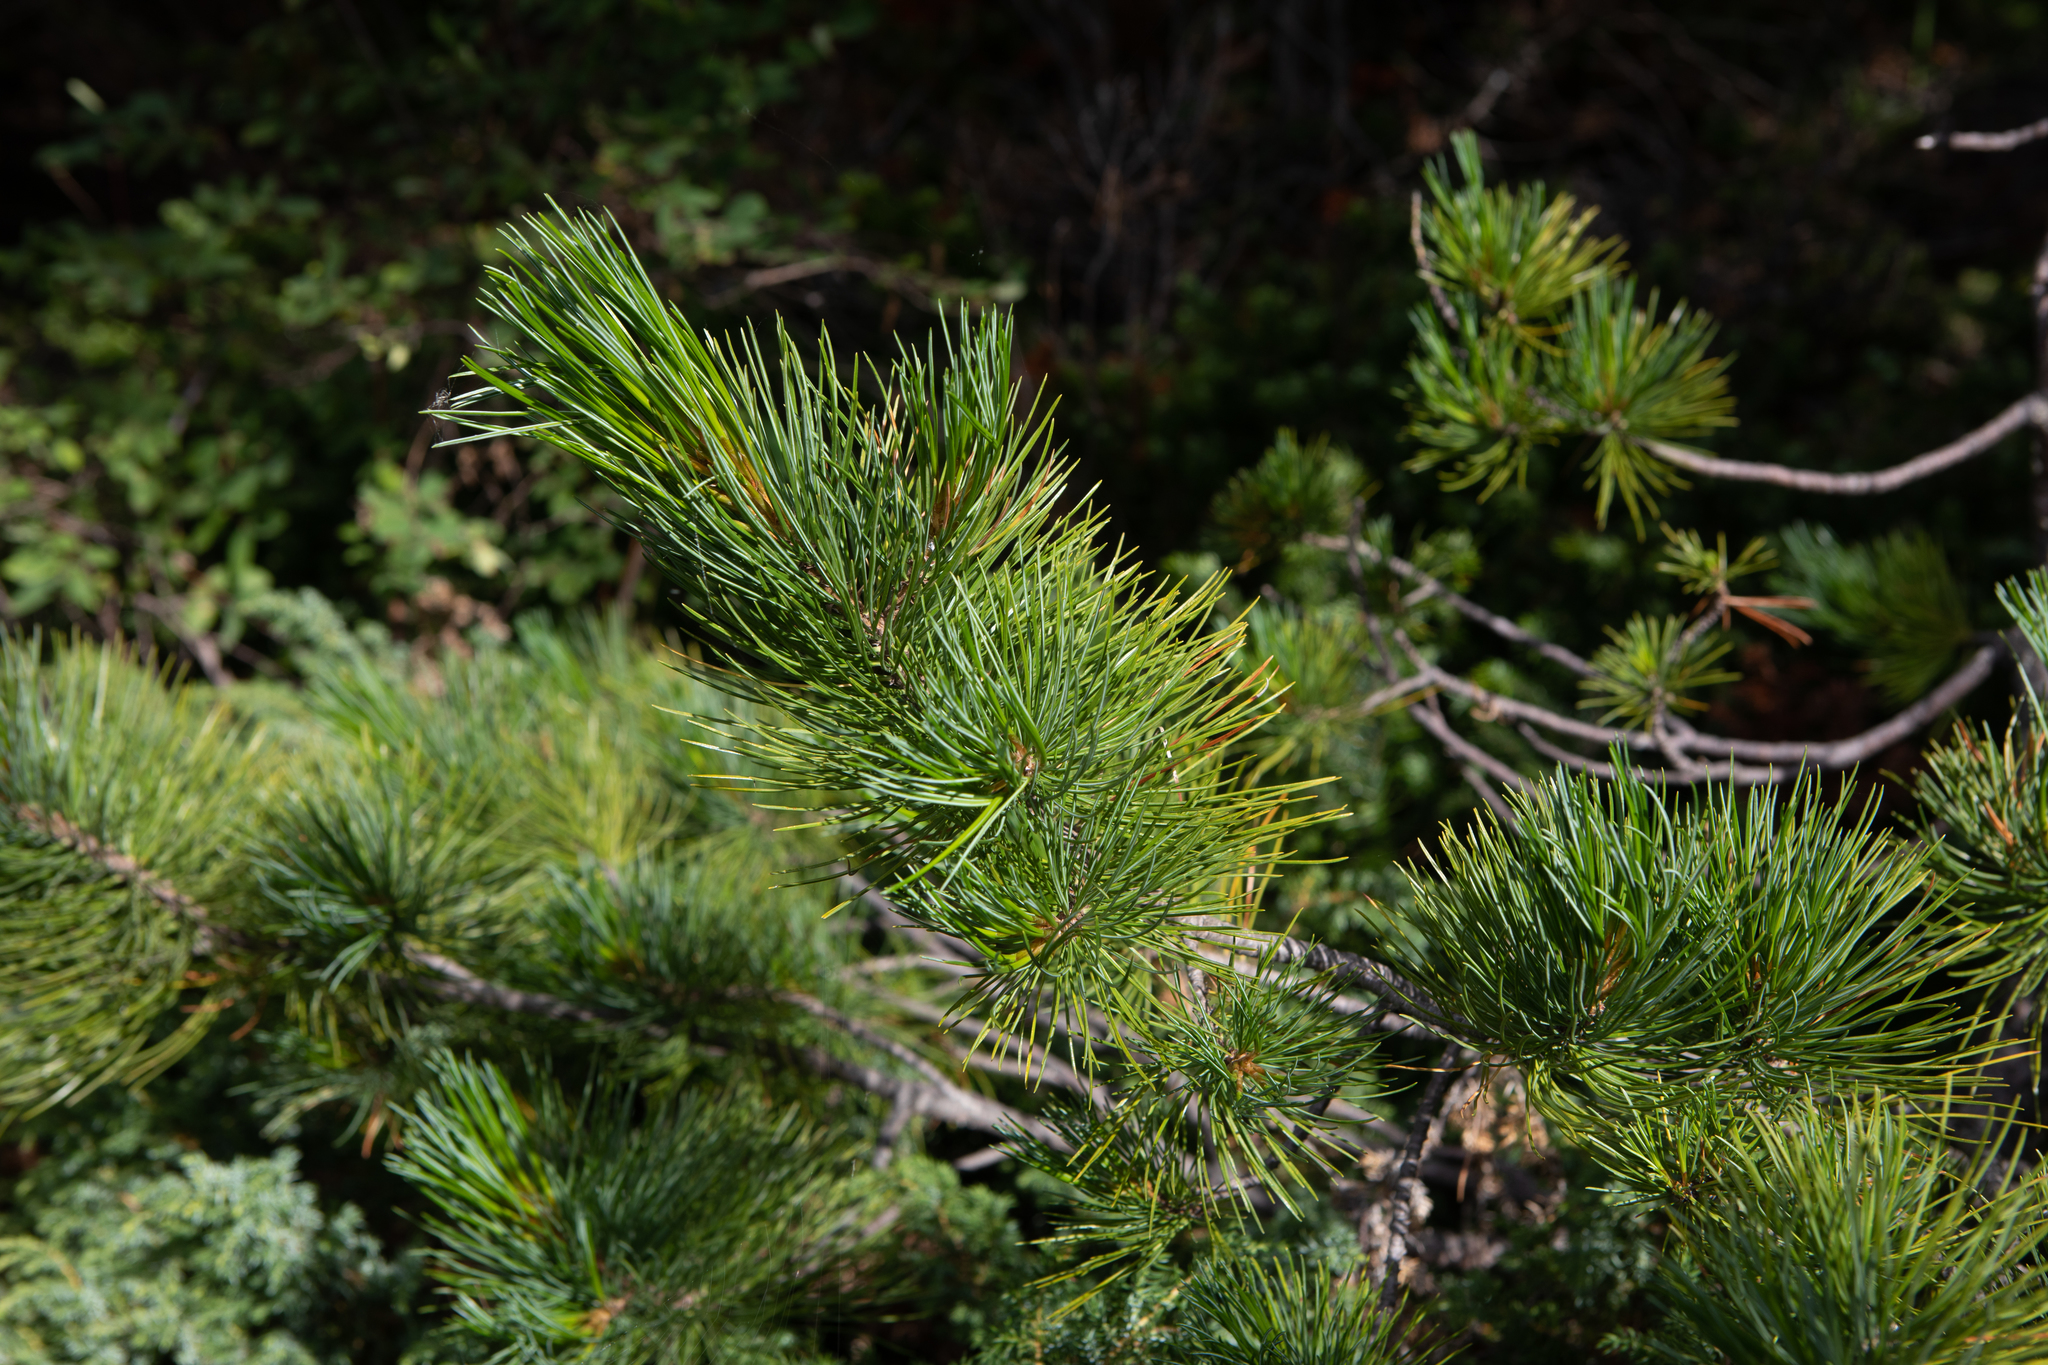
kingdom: Plantae
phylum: Tracheophyta
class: Pinopsida
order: Pinales
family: Pinaceae
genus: Pinus
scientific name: Pinus sibirica
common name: Siberian pine
